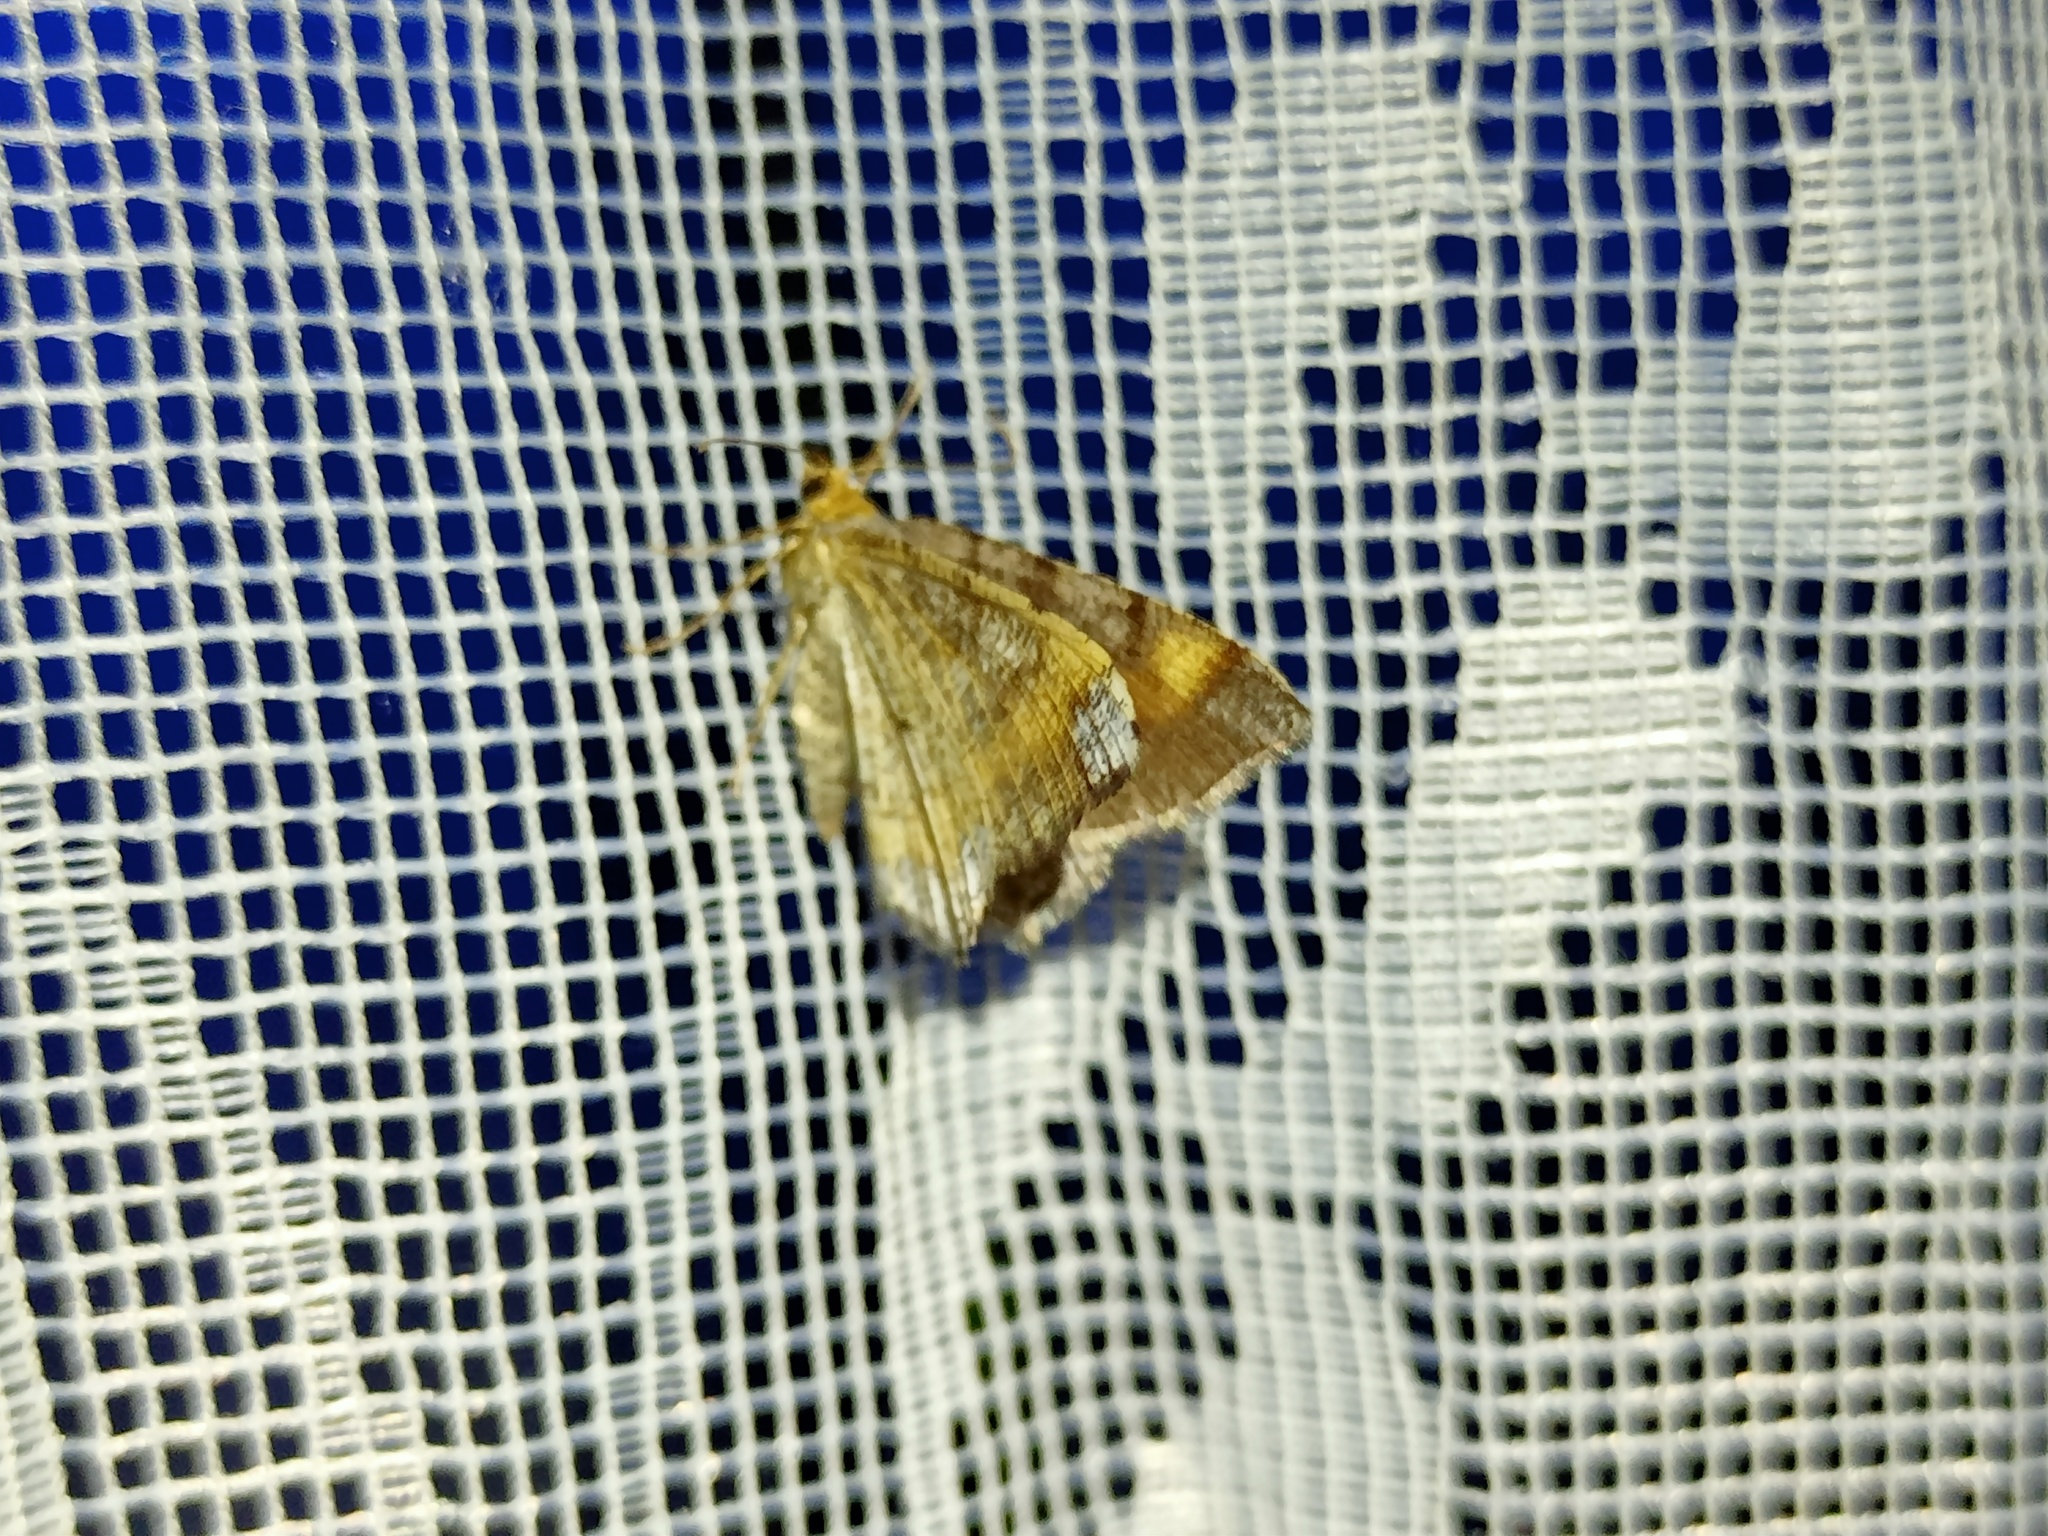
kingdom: Animalia
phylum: Arthropoda
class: Insecta
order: Lepidoptera
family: Geometridae
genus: Macaria
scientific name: Macaria liturata
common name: Tawny-barred angle
